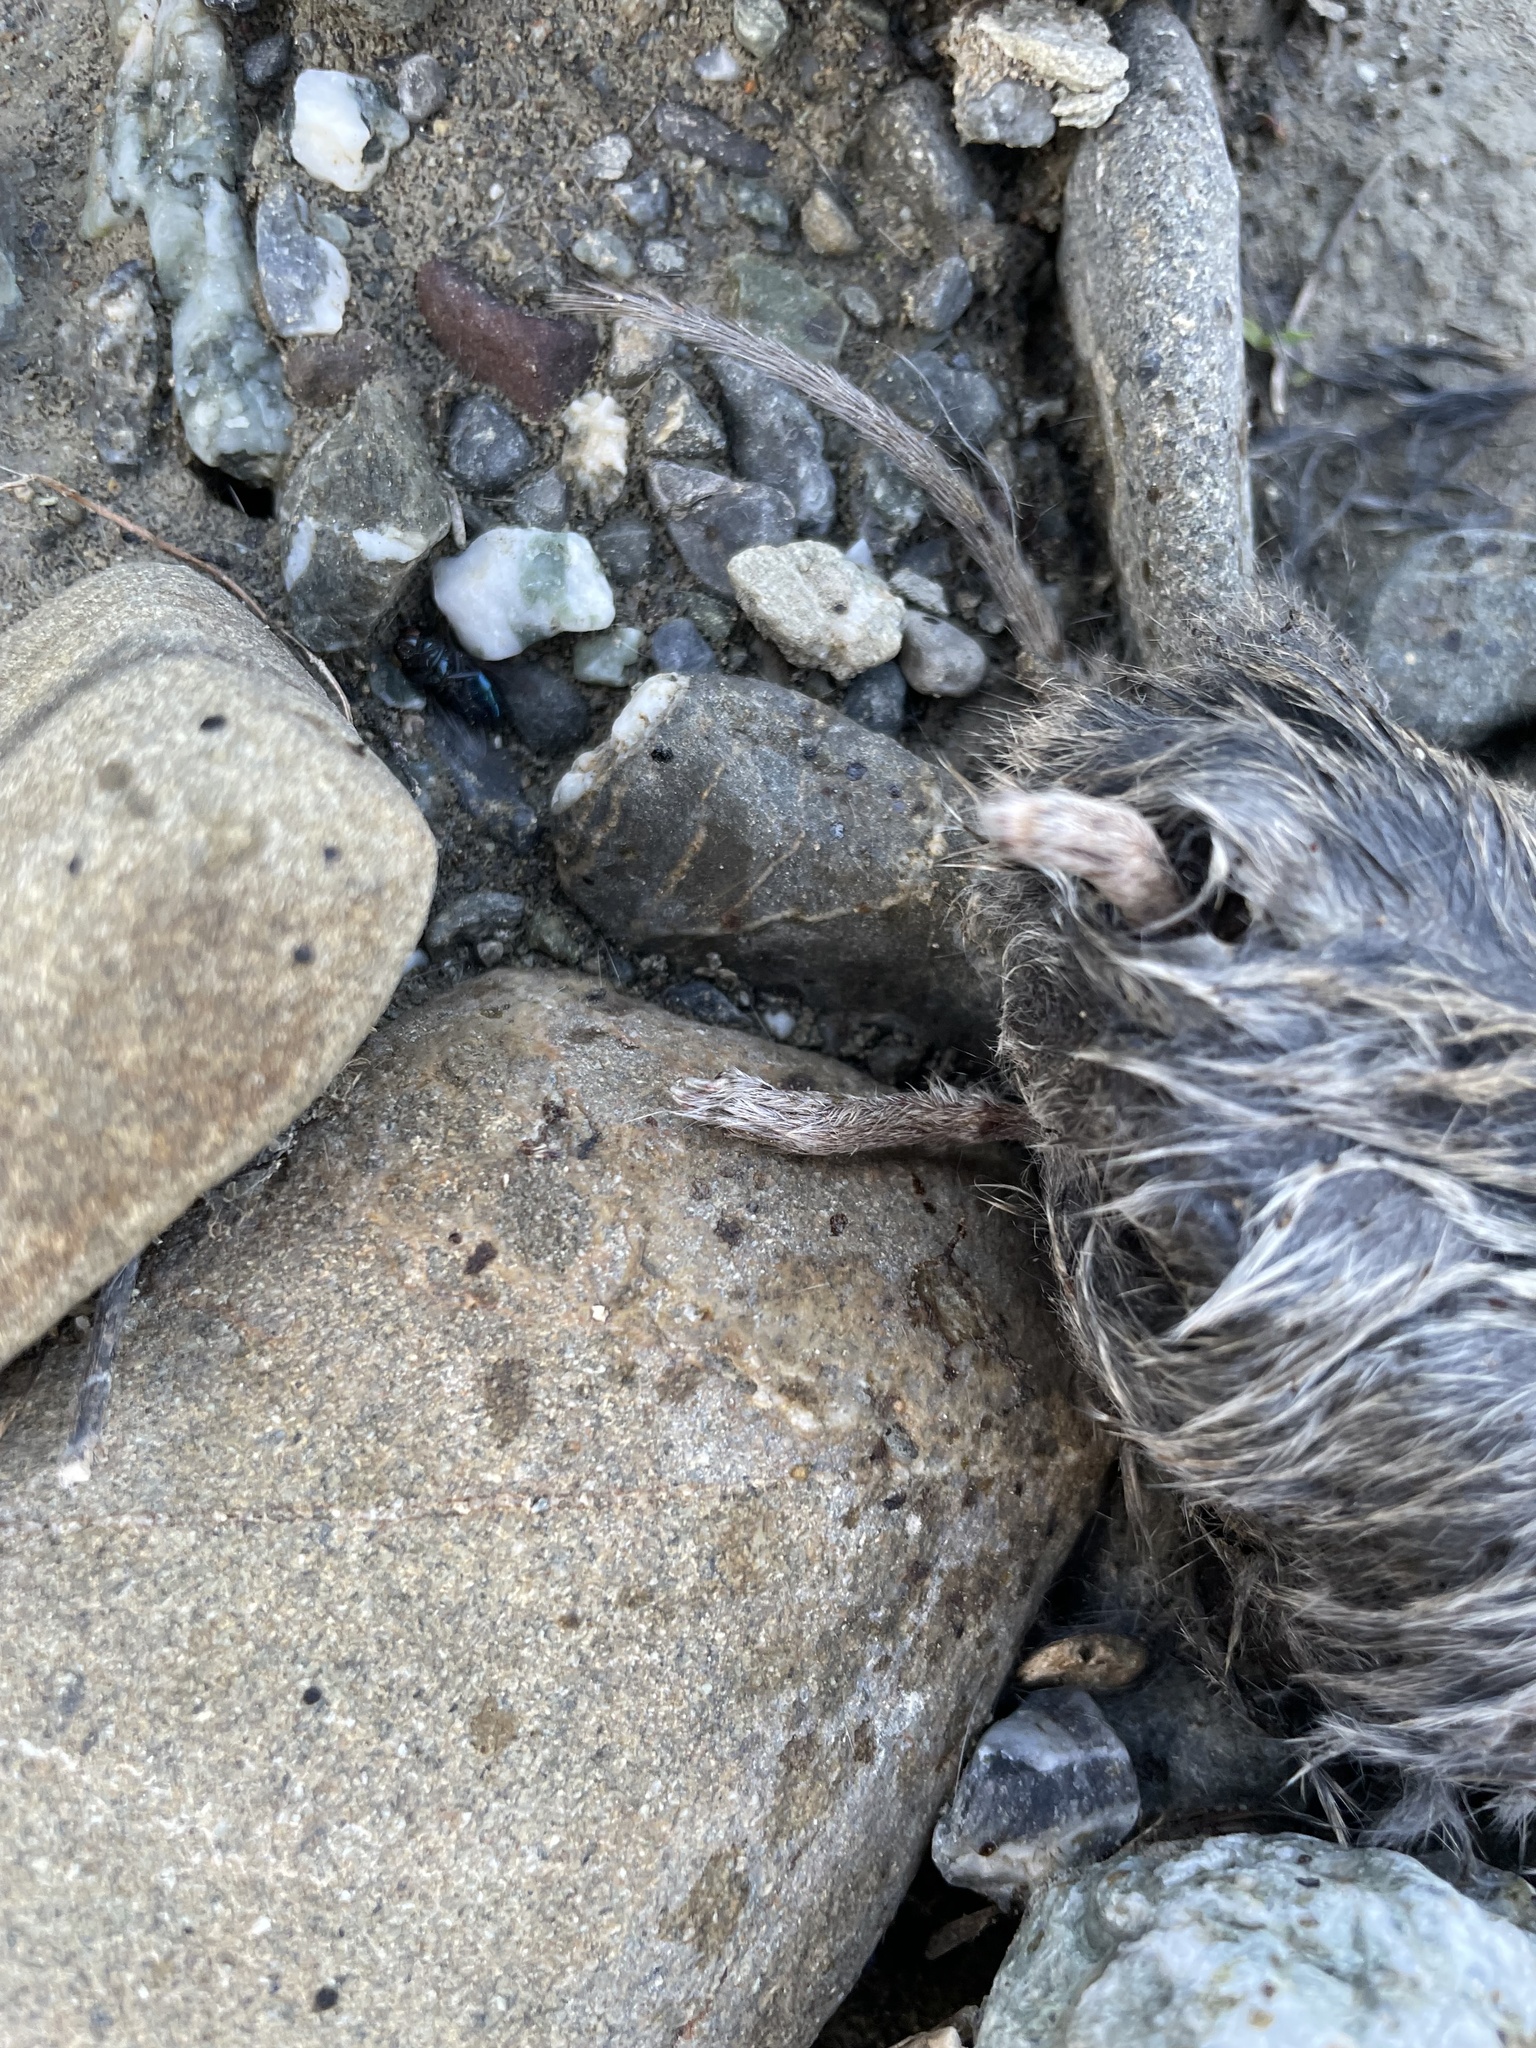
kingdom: Animalia
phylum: Chordata
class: Mammalia
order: Rodentia
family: Cricetidae
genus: Microtus
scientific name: Microtus californicus
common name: California vole
